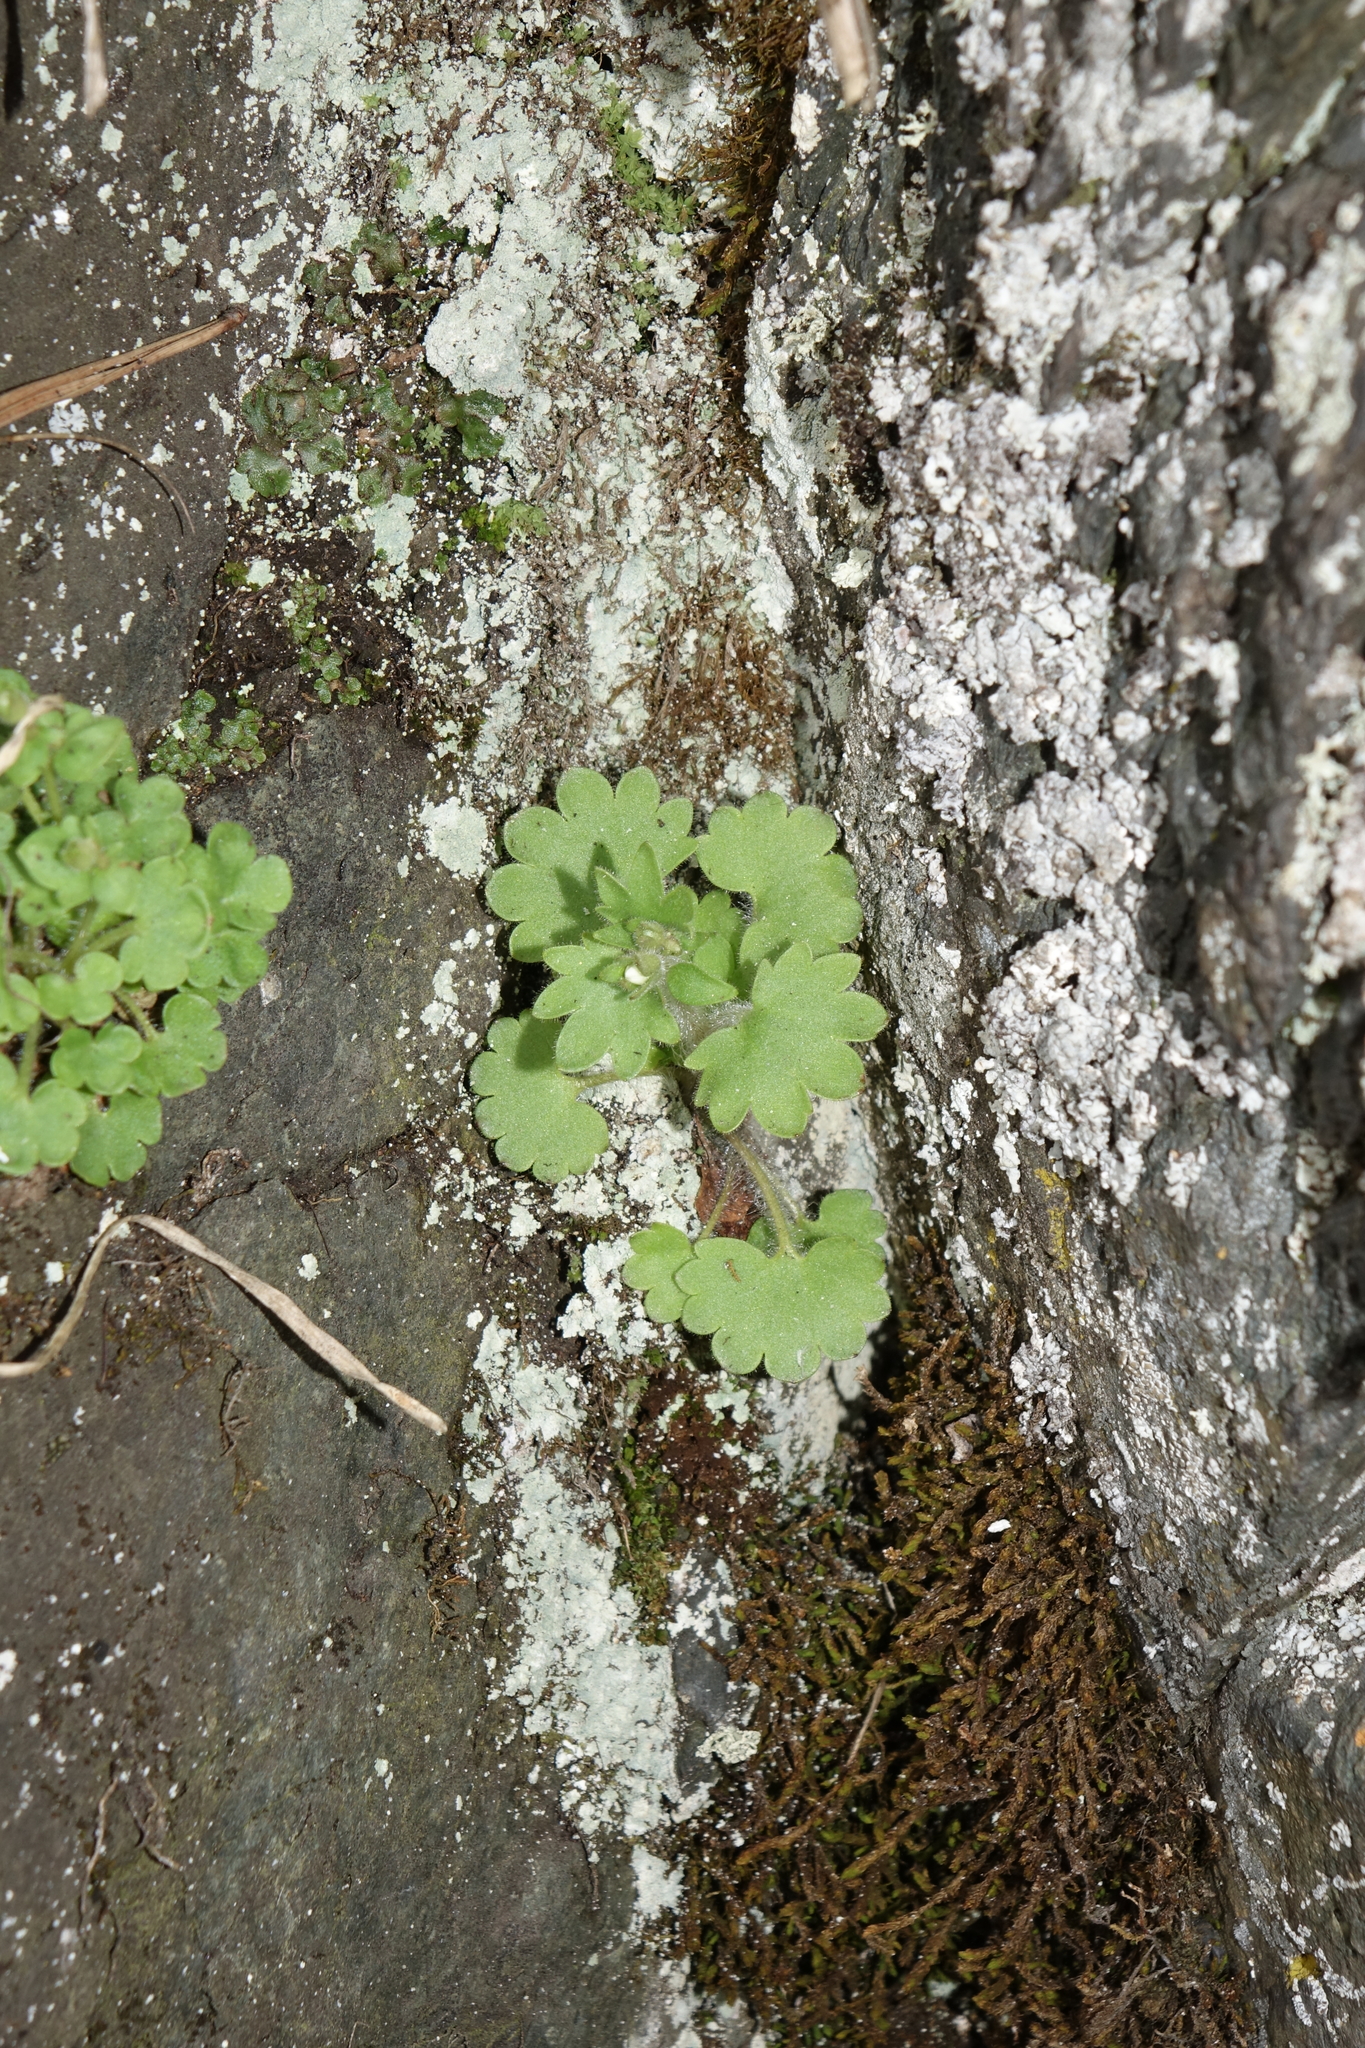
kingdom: Plantae
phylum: Tracheophyta
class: Magnoliopsida
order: Saxifragales
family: Saxifragaceae
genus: Saxifraga
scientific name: Saxifraga sibirica
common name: Siberian saxifrage
